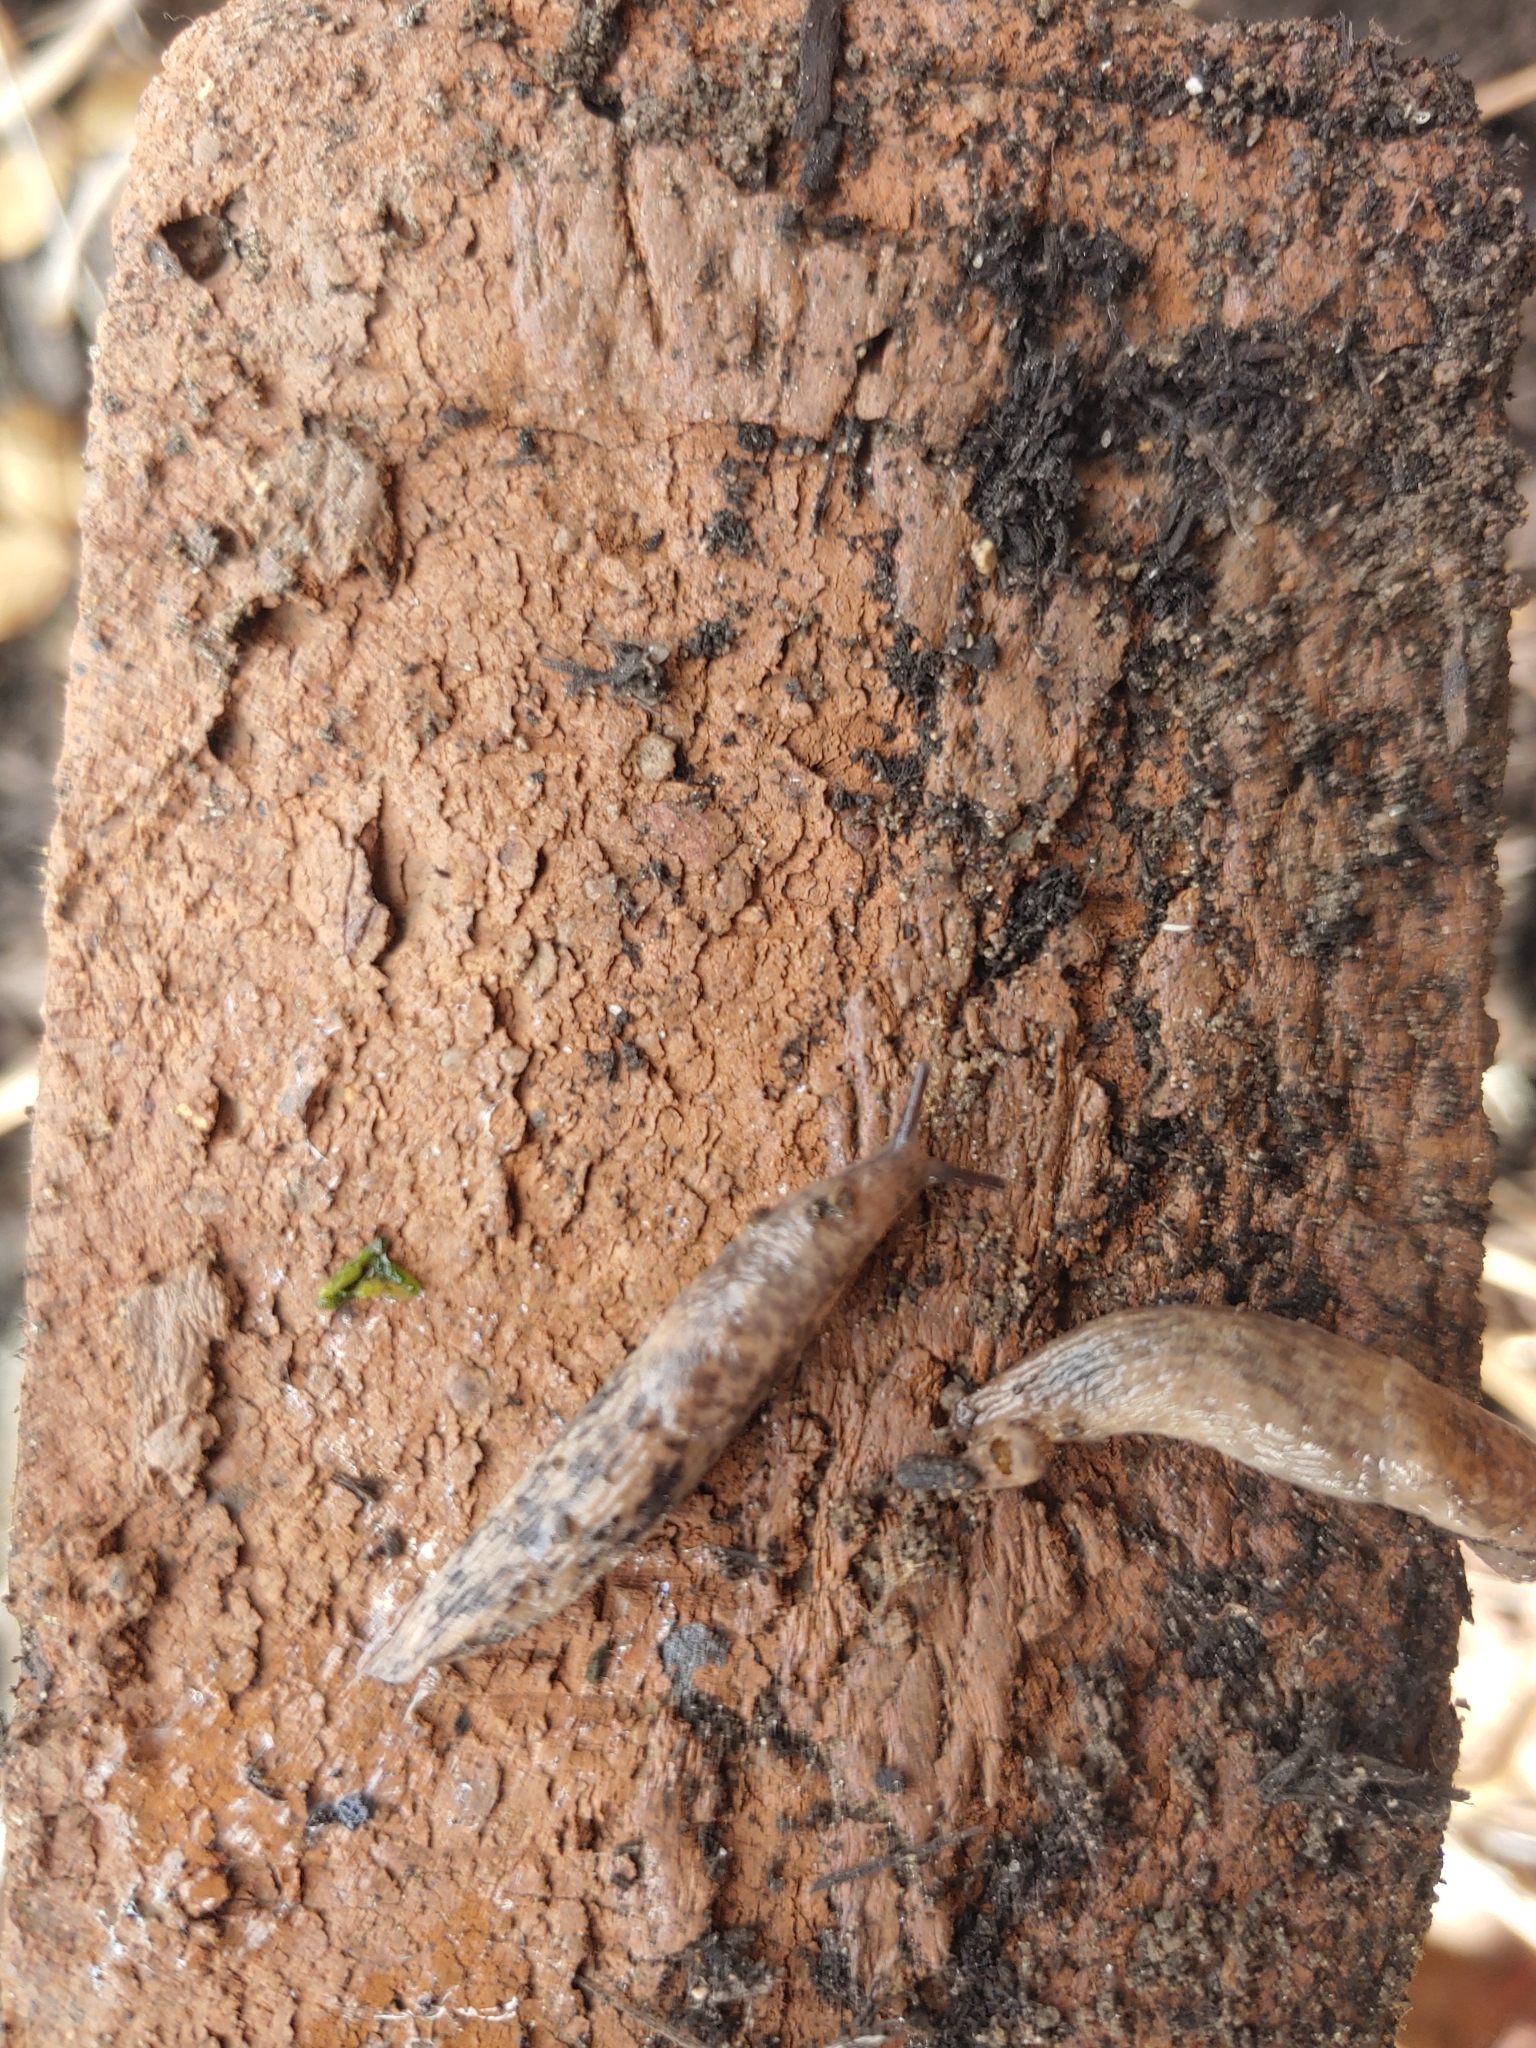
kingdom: Animalia
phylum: Mollusca
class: Gastropoda
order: Stylommatophora
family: Agriolimacidae
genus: Deroceras
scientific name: Deroceras reticulatum
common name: Gray field slug
